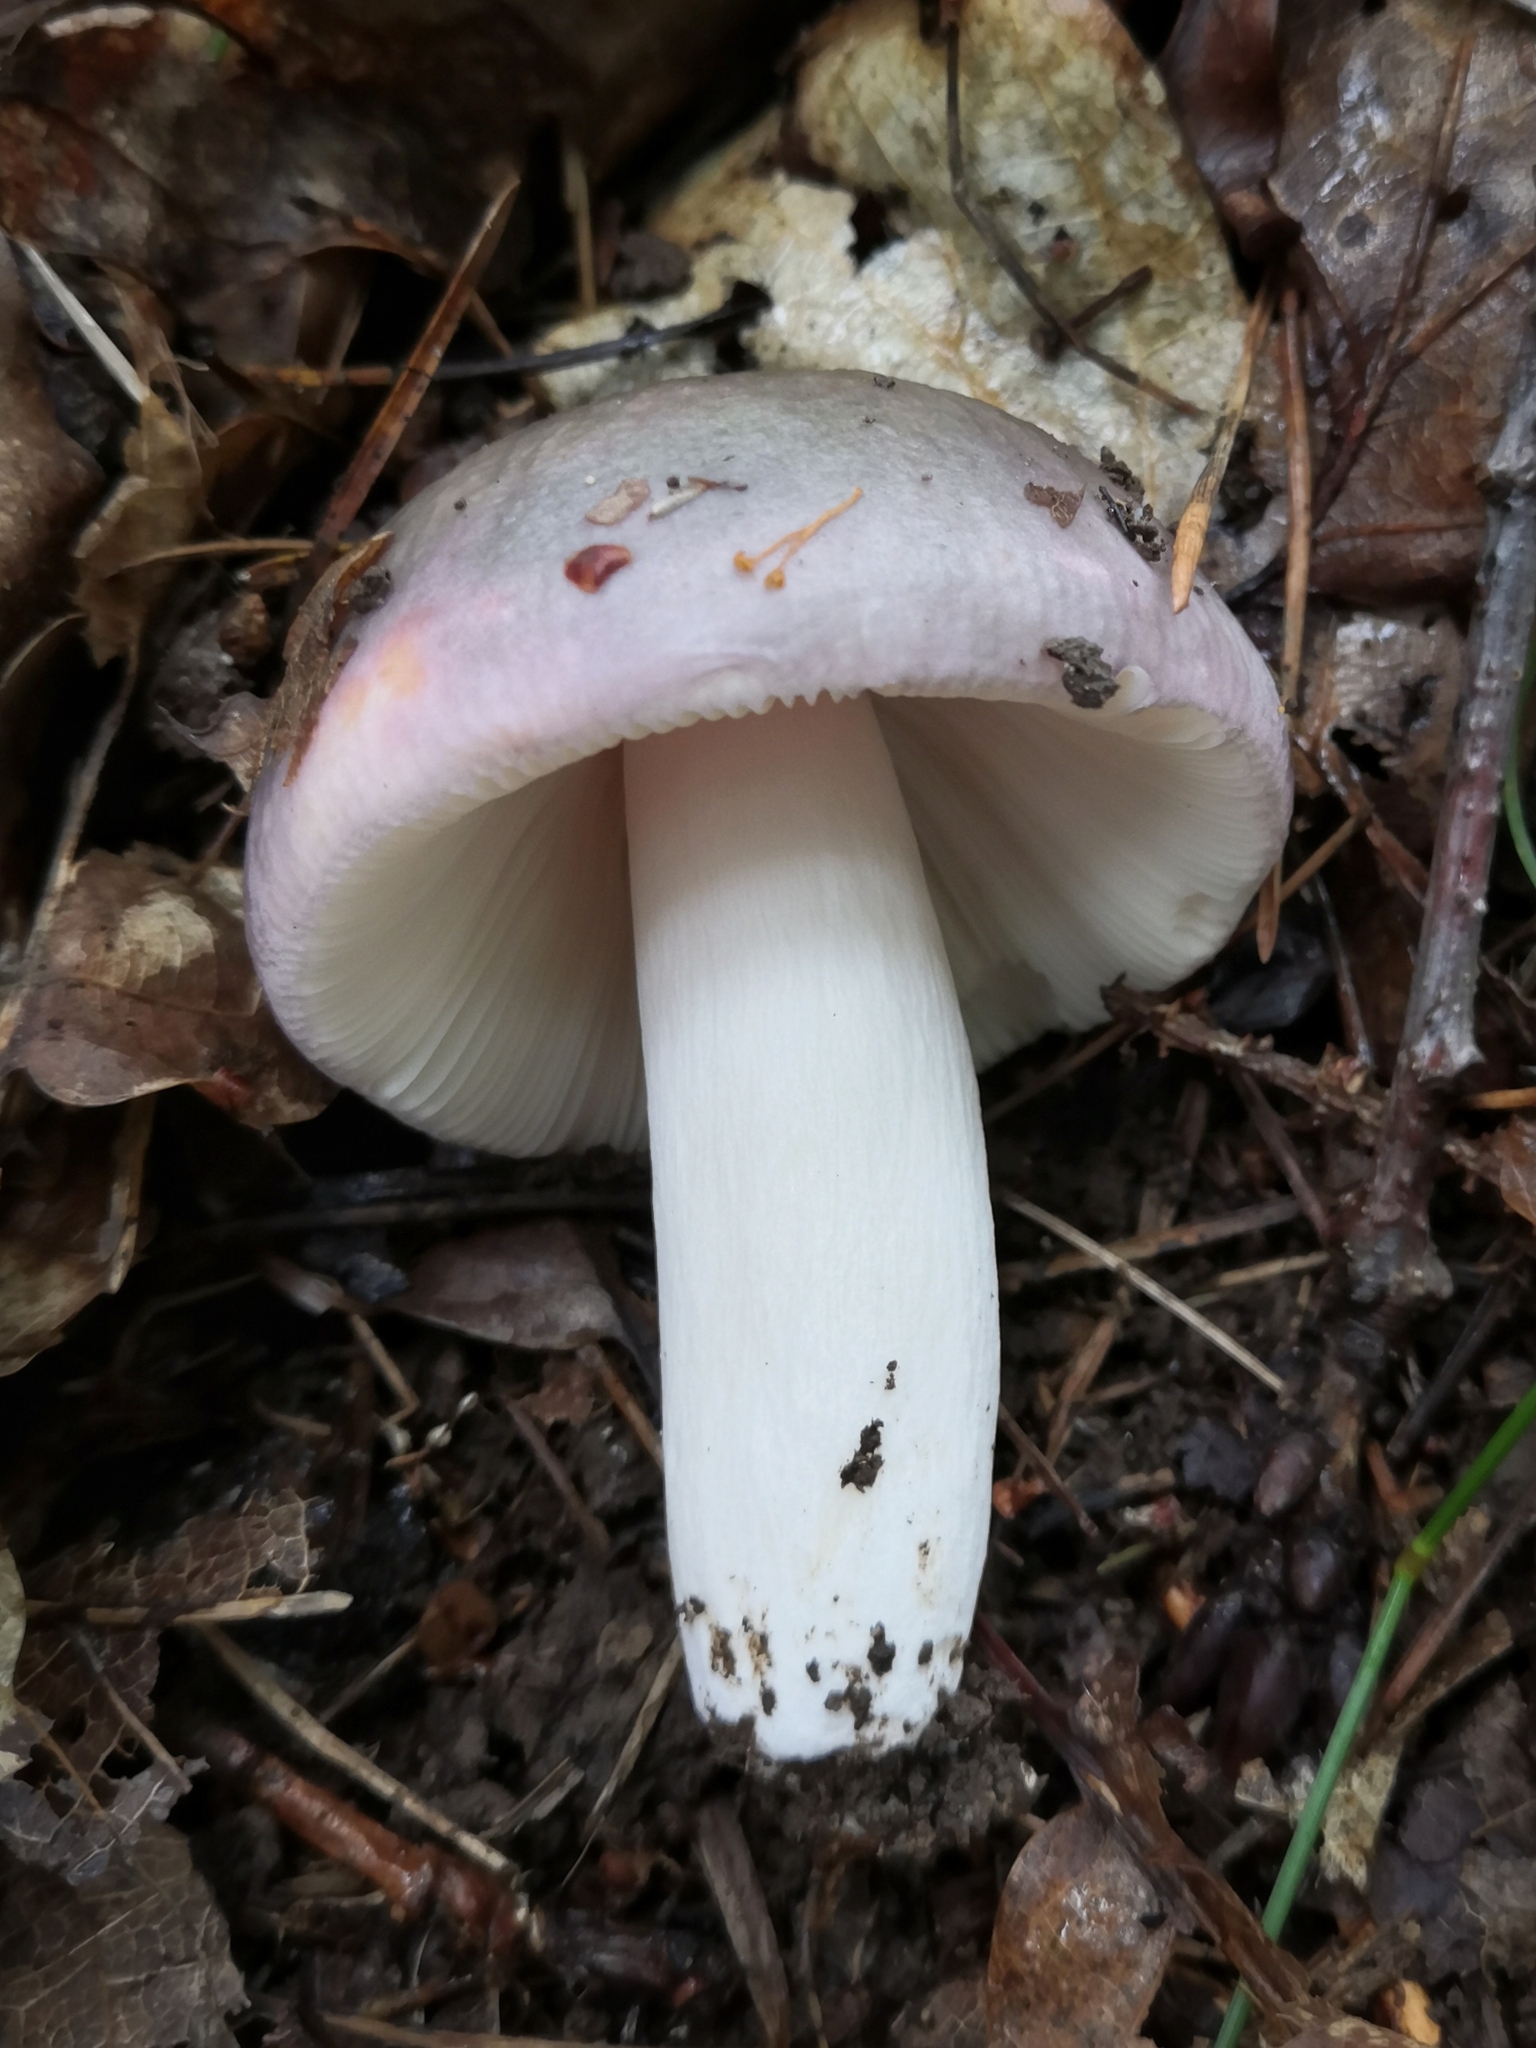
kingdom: Fungi
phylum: Basidiomycota
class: Agaricomycetes
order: Russulales
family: Russulaceae
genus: Russula
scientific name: Russula cyanoxantha
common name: Charcoal burner
